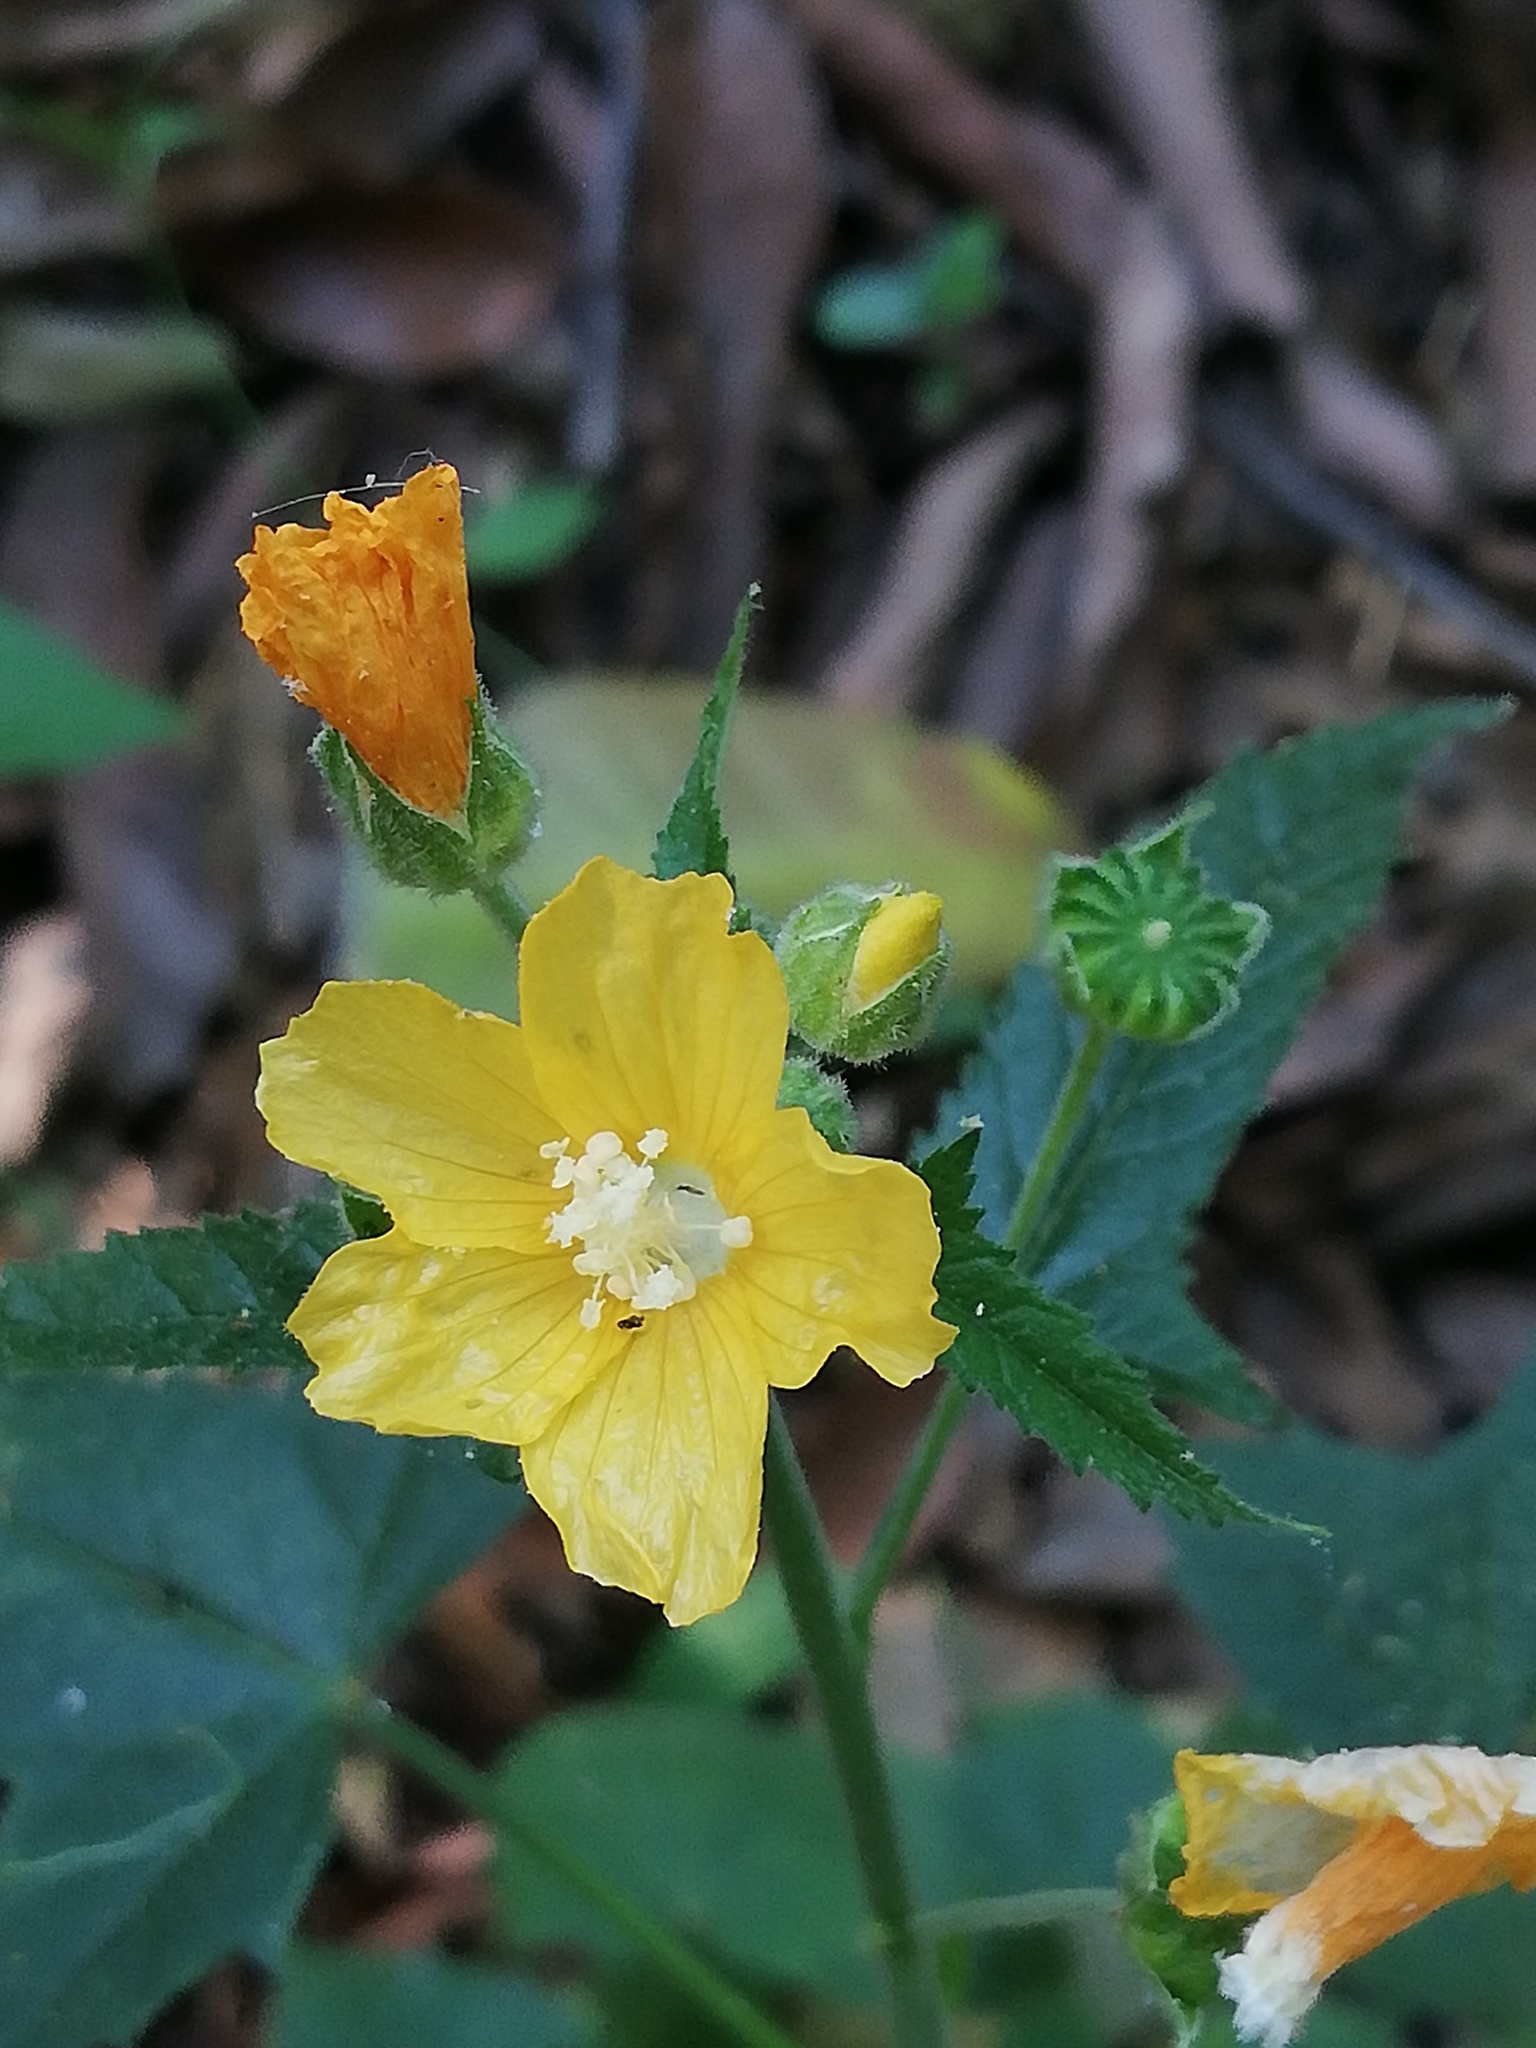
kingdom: Plantae
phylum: Tracheophyta
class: Magnoliopsida
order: Malvales
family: Malvaceae
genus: Anoda
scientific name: Anoda leonensis
